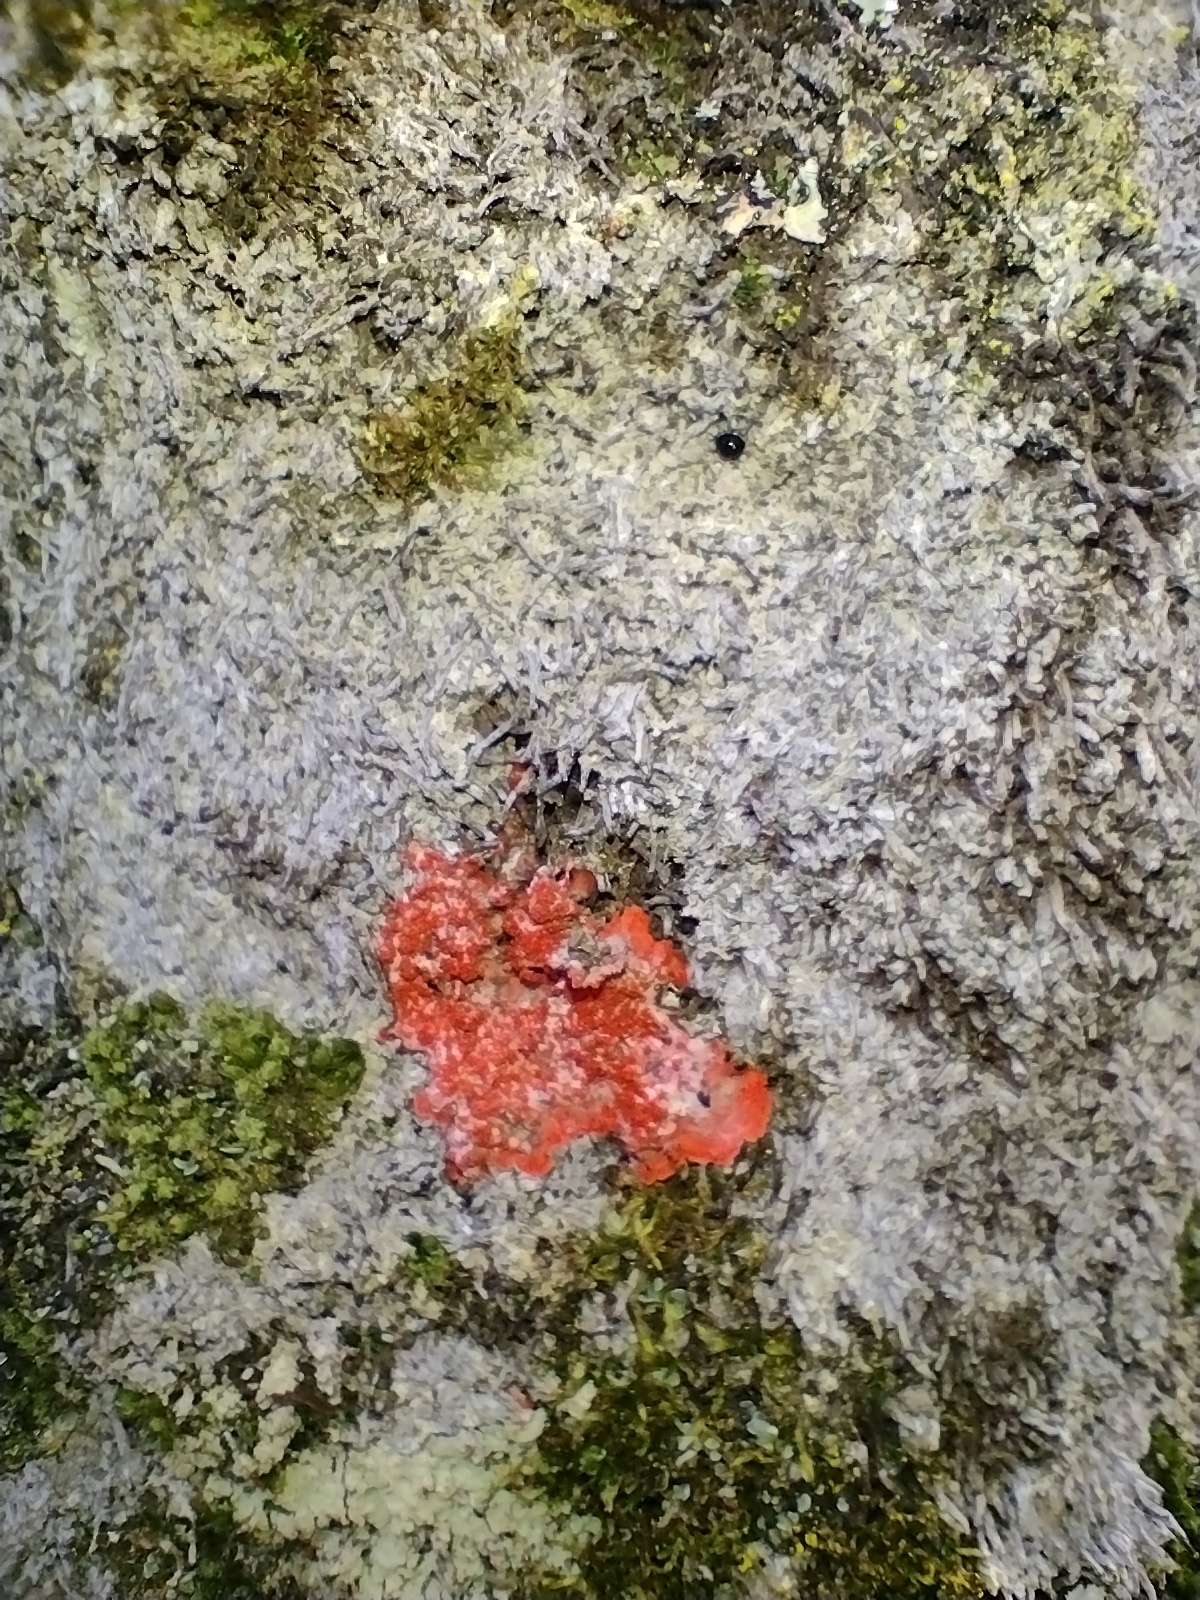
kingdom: Fungi
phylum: Ascomycota
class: Arthoniomycetes
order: Arthoniales
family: Arthoniaceae
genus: Herpothallon
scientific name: Herpothallon rubrocinctum
